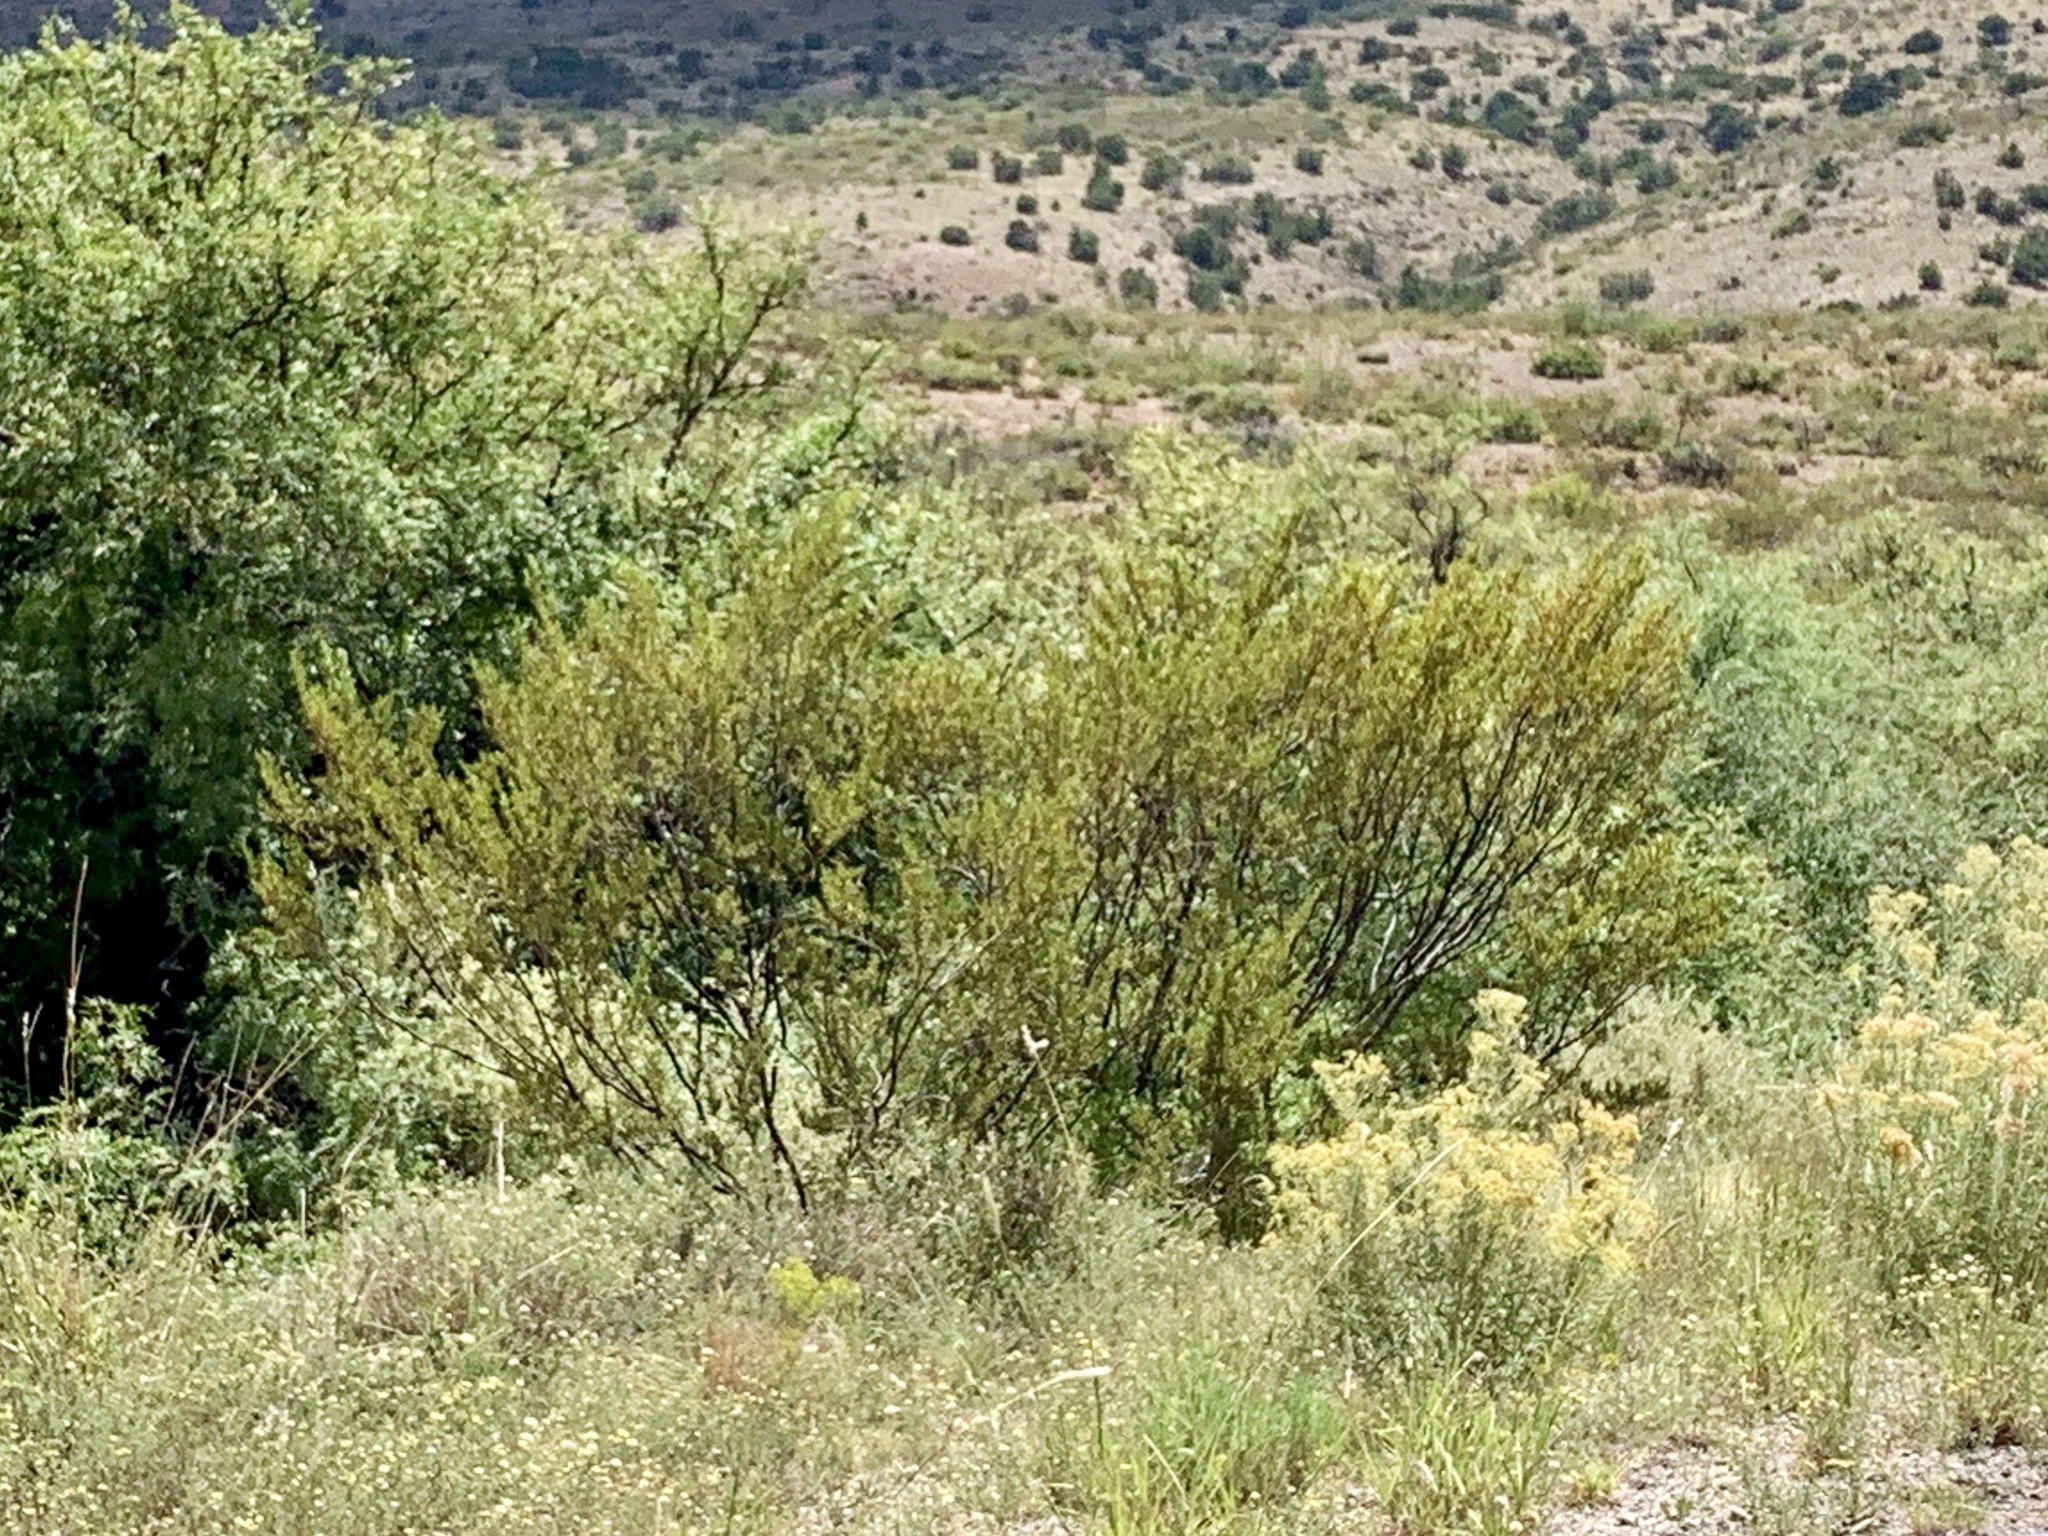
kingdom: Plantae
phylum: Tracheophyta
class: Magnoliopsida
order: Zygophyllales
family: Zygophyllaceae
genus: Larrea
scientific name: Larrea tridentata
